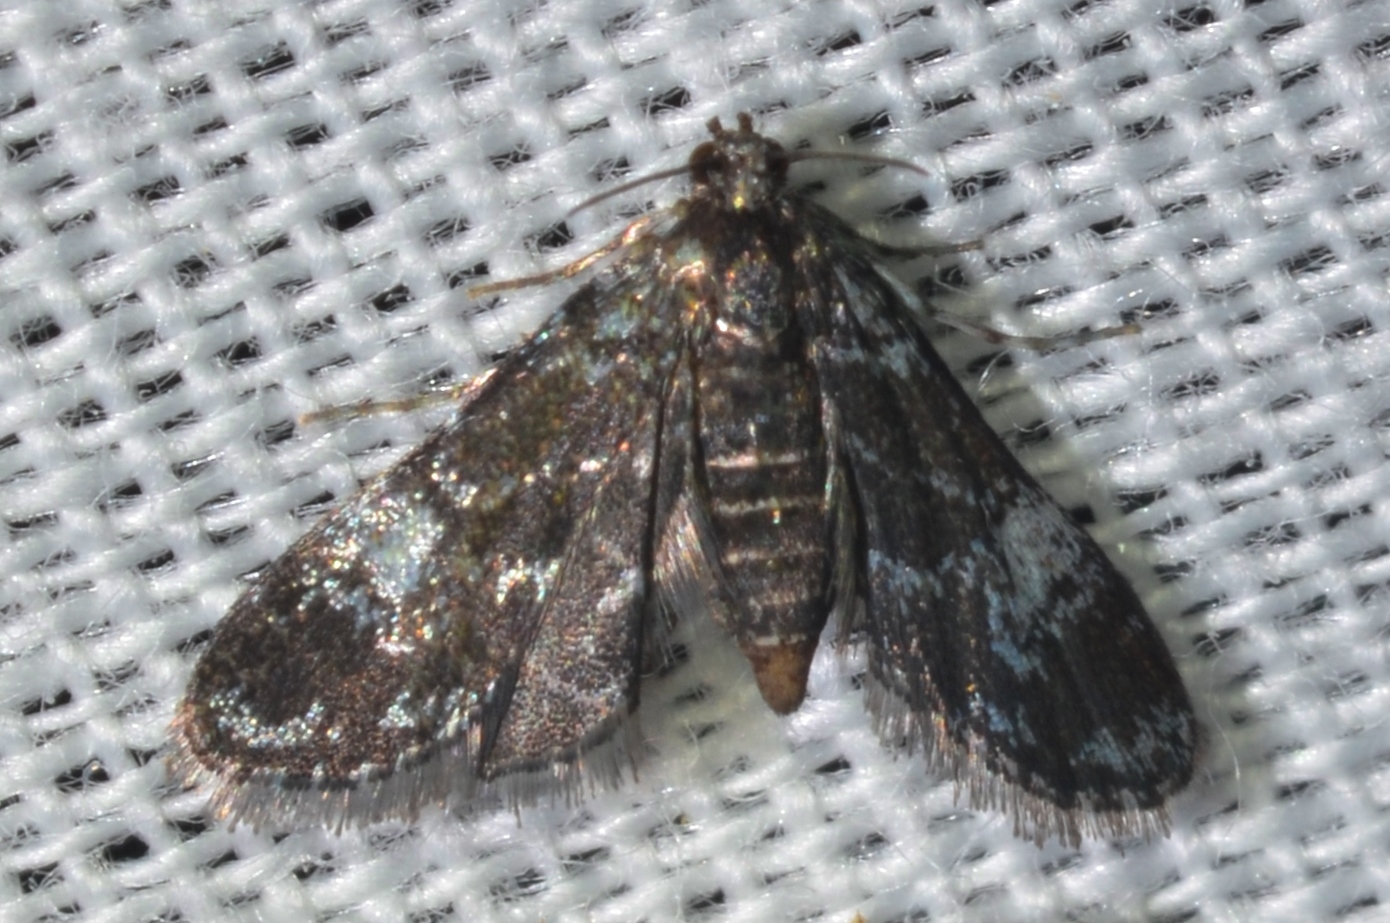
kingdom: Animalia
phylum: Arthropoda
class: Insecta
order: Lepidoptera
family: Crambidae
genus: Elophila
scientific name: Elophila tinealis
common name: Black duckweed moth
